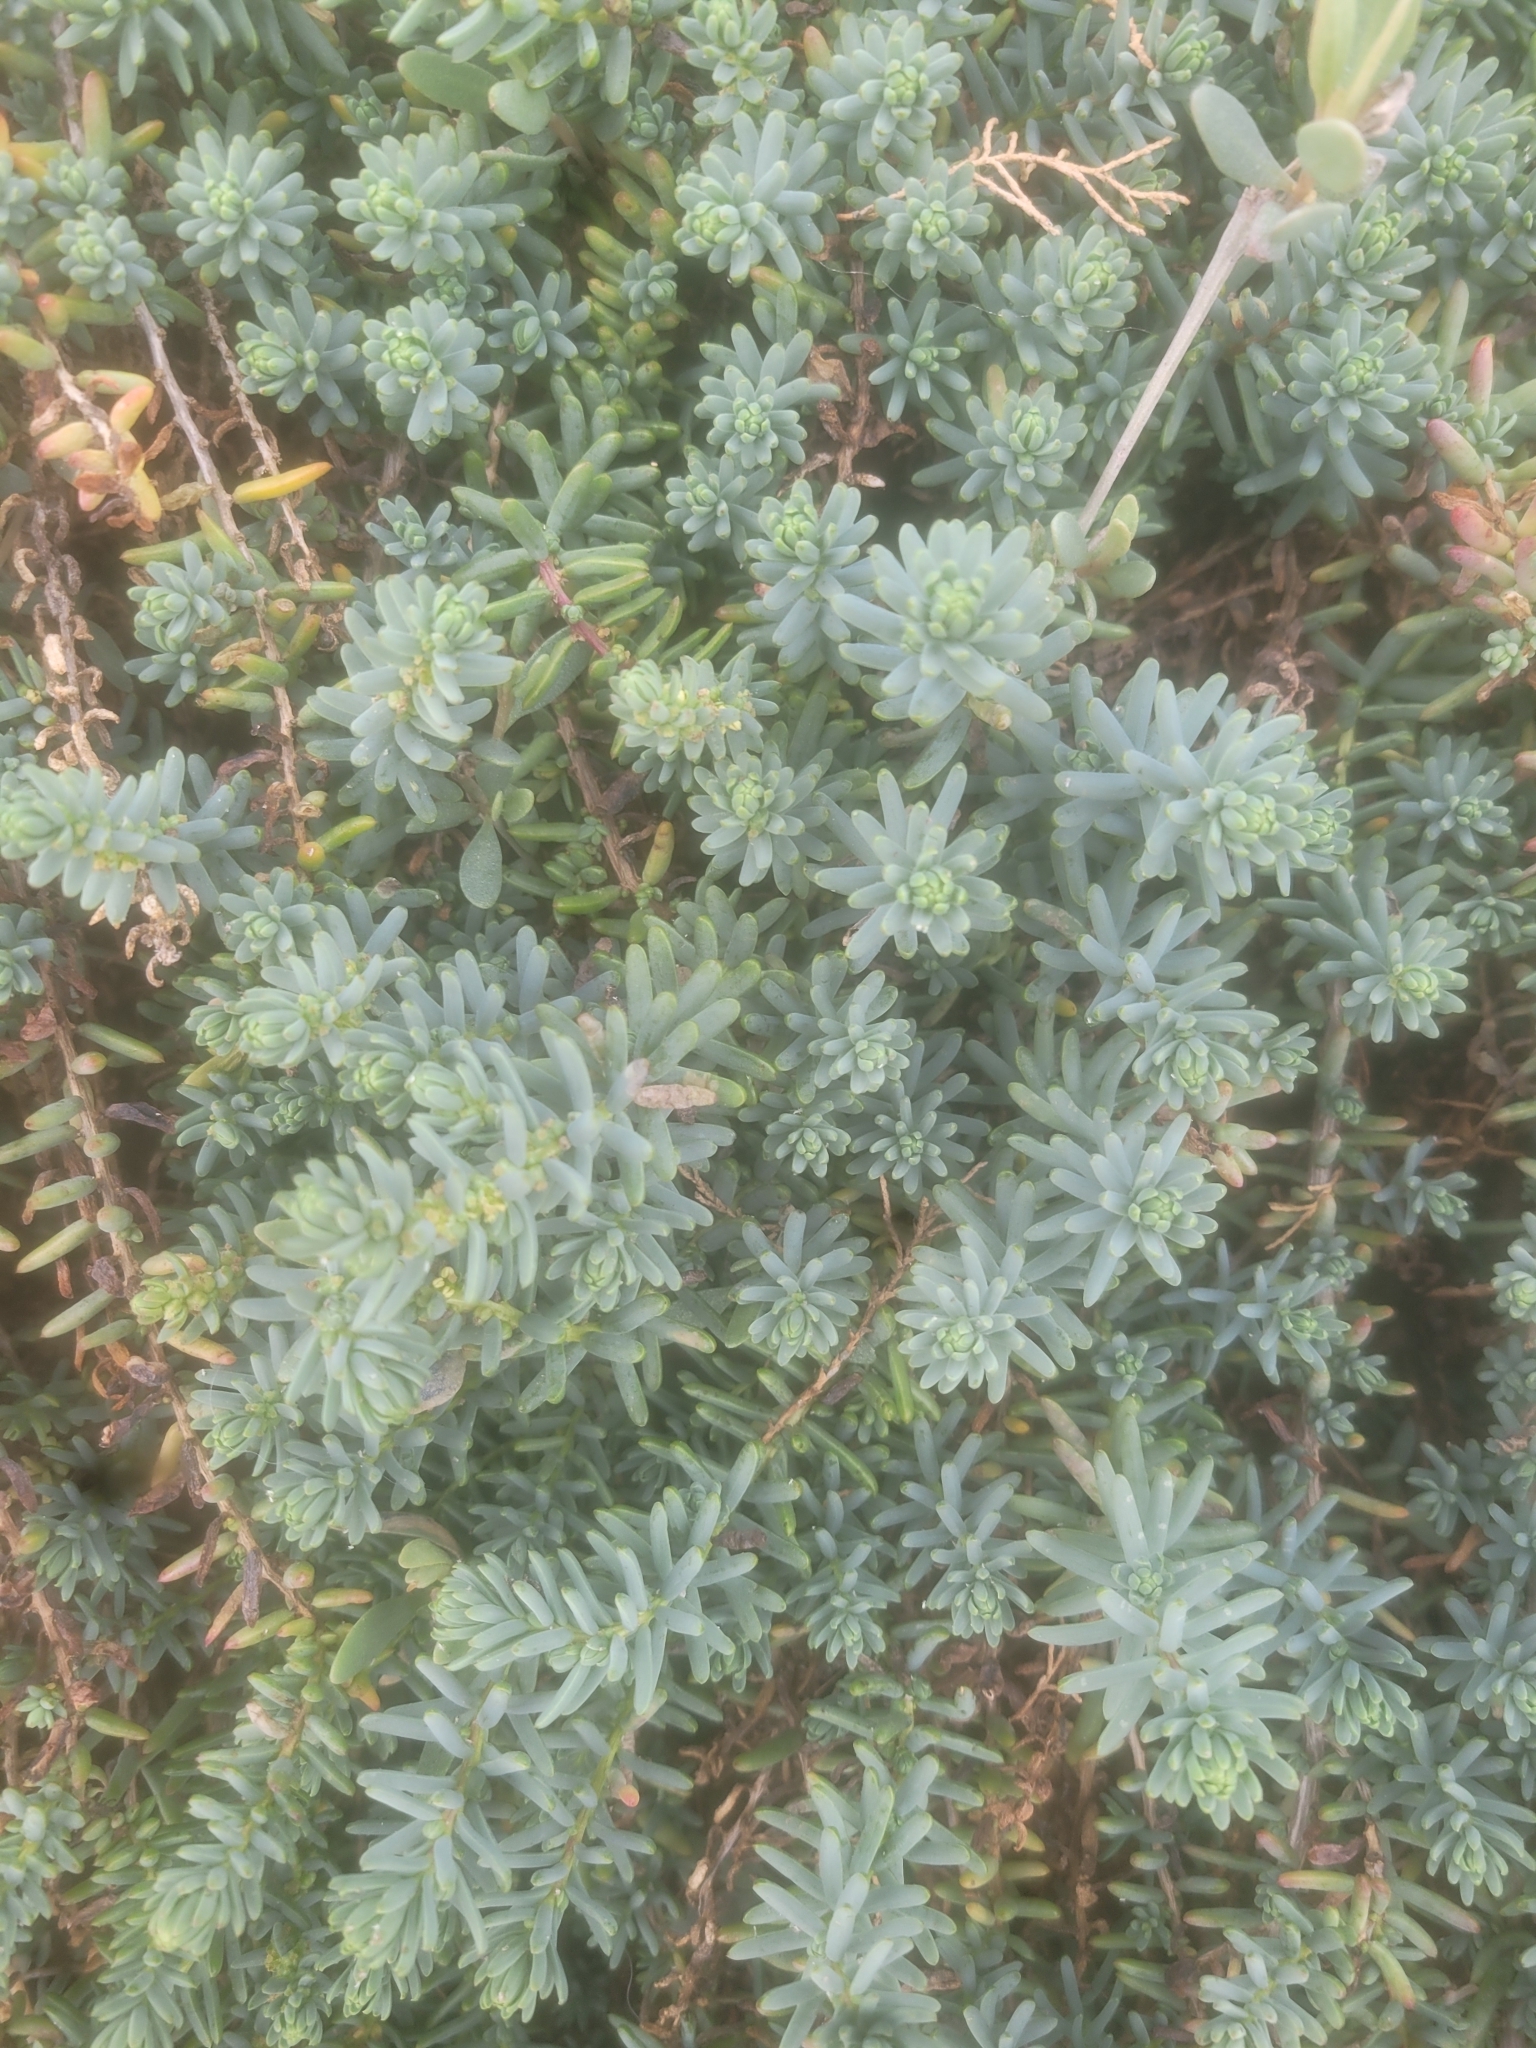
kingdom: Plantae
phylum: Tracheophyta
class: Magnoliopsida
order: Caryophyllales
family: Amaranthaceae
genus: Suaeda
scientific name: Suaeda vera
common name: Shrubby sea-blite
